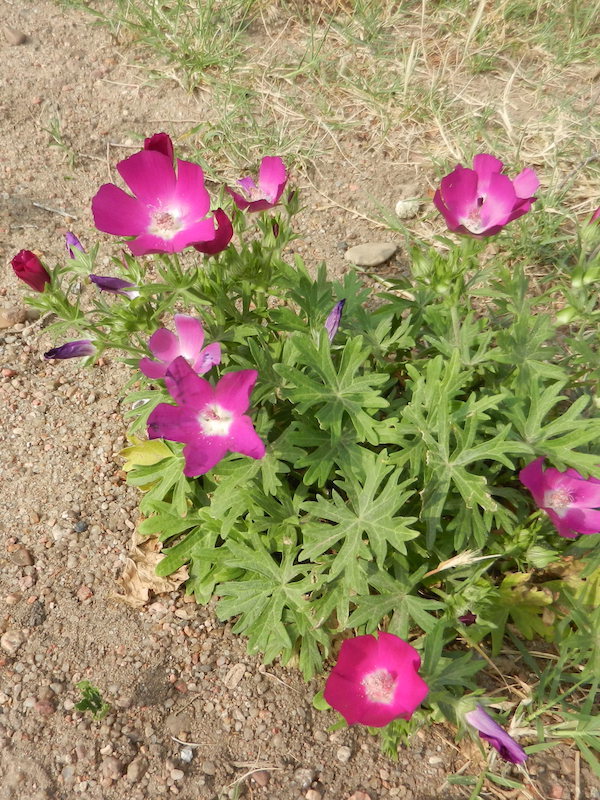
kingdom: Plantae
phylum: Tracheophyta
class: Magnoliopsida
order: Malvales
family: Malvaceae
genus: Callirhoe
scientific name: Callirhoe involucrata
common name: Purple poppy-mallow
